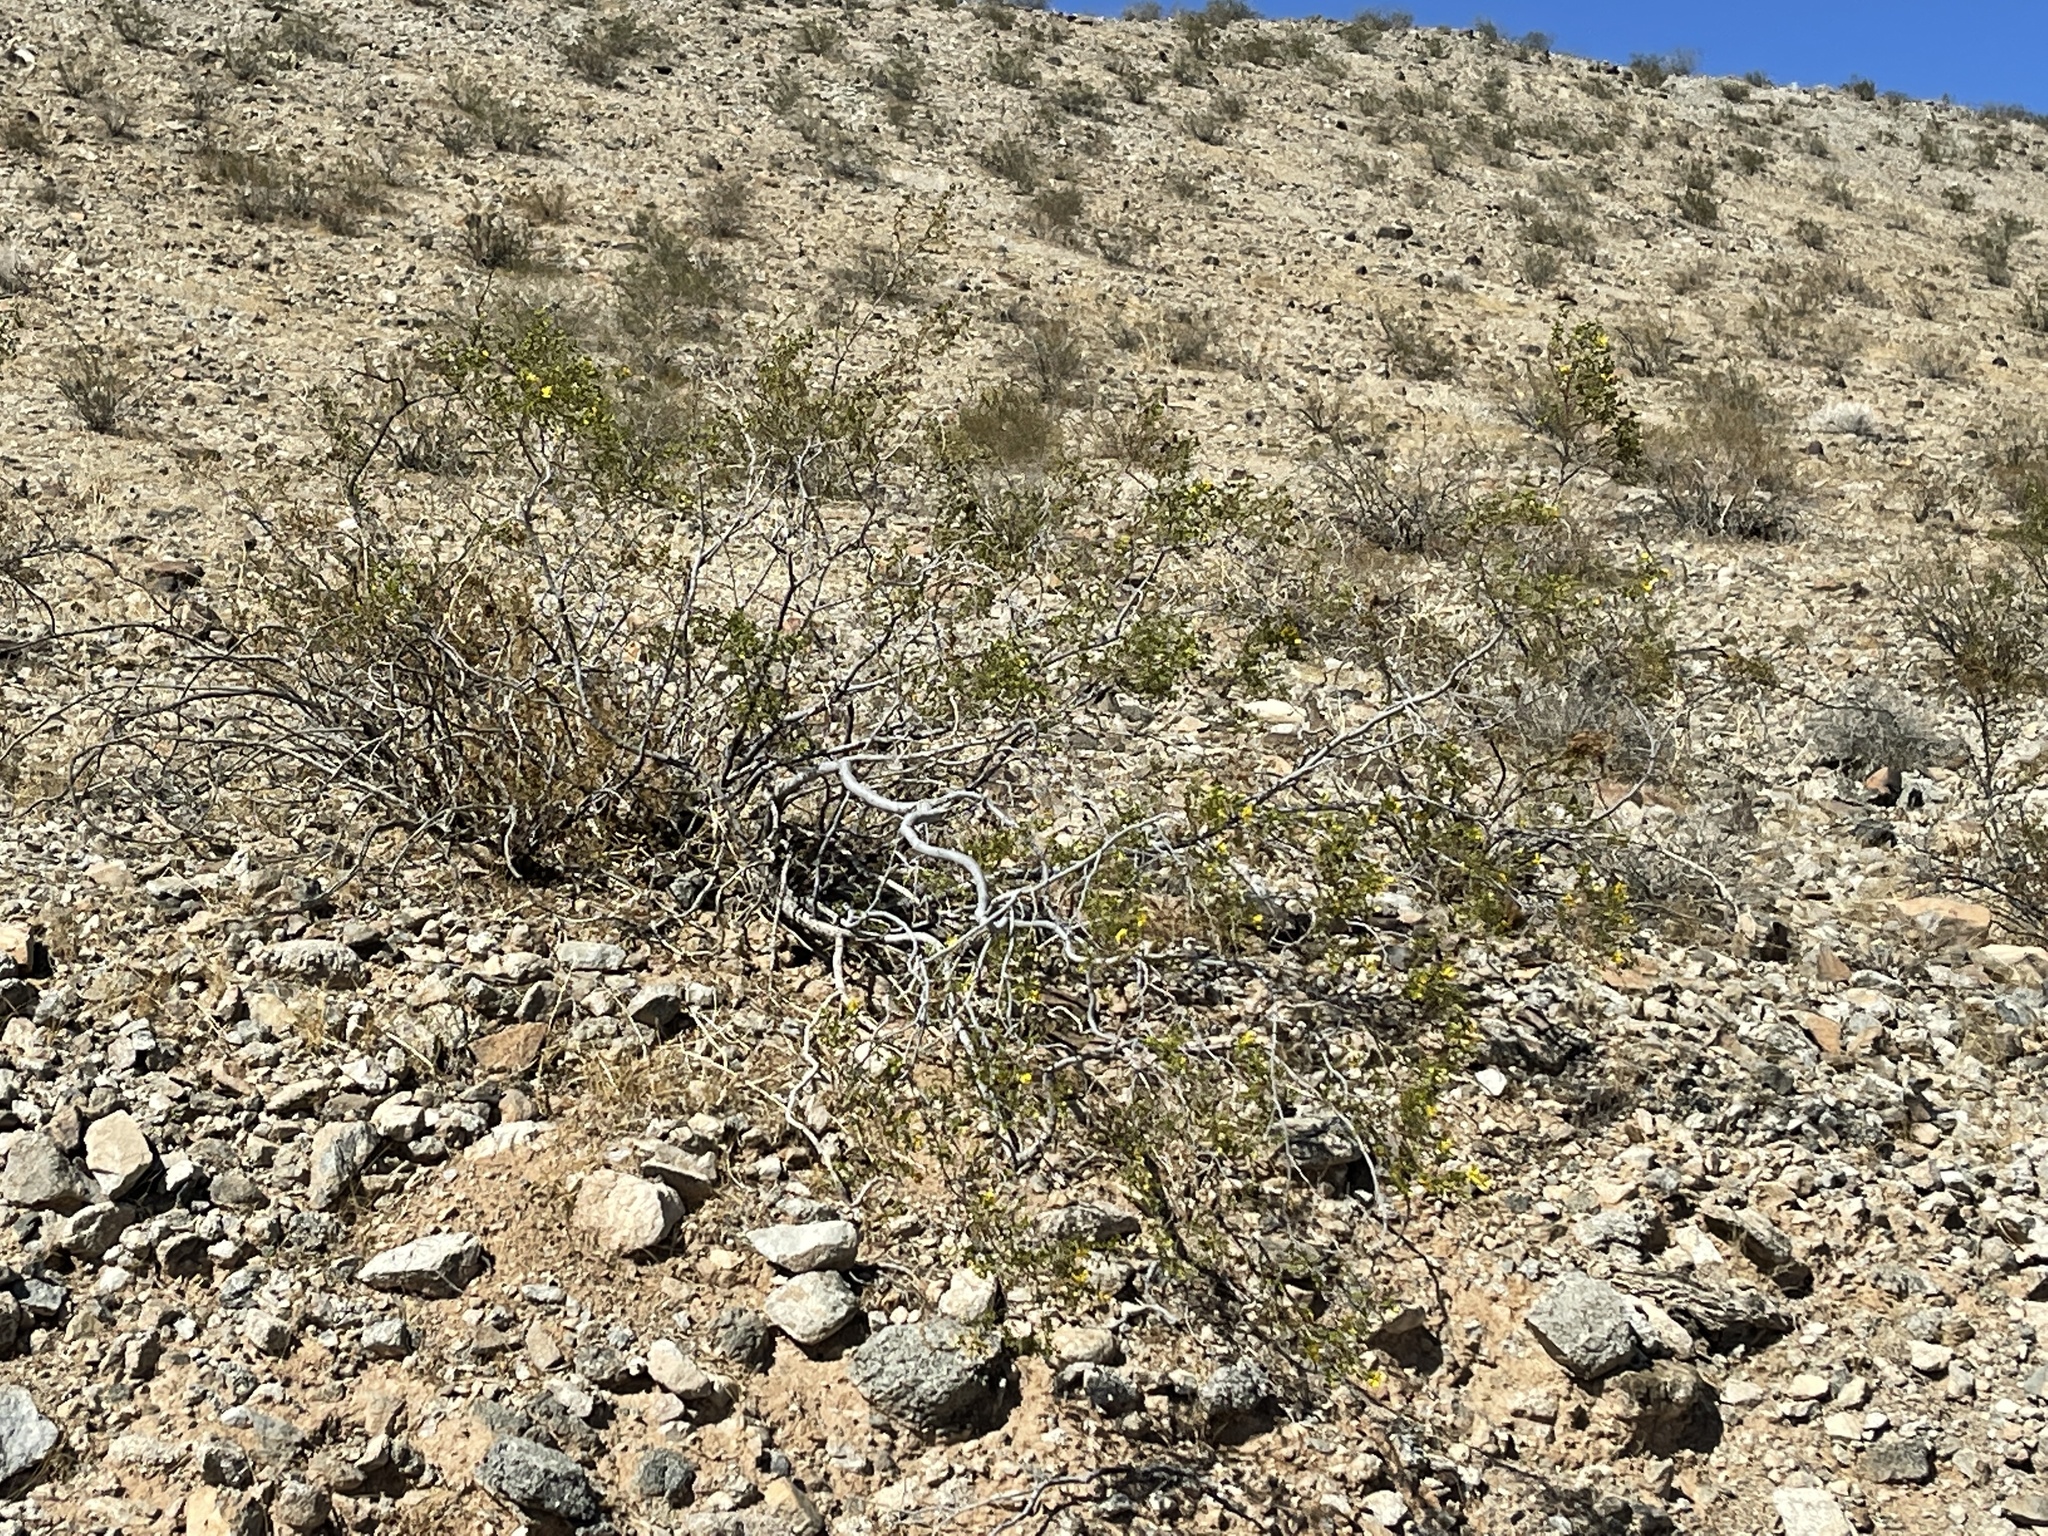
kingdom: Plantae
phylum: Tracheophyta
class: Magnoliopsida
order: Zygophyllales
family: Zygophyllaceae
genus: Larrea
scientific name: Larrea tridentata
